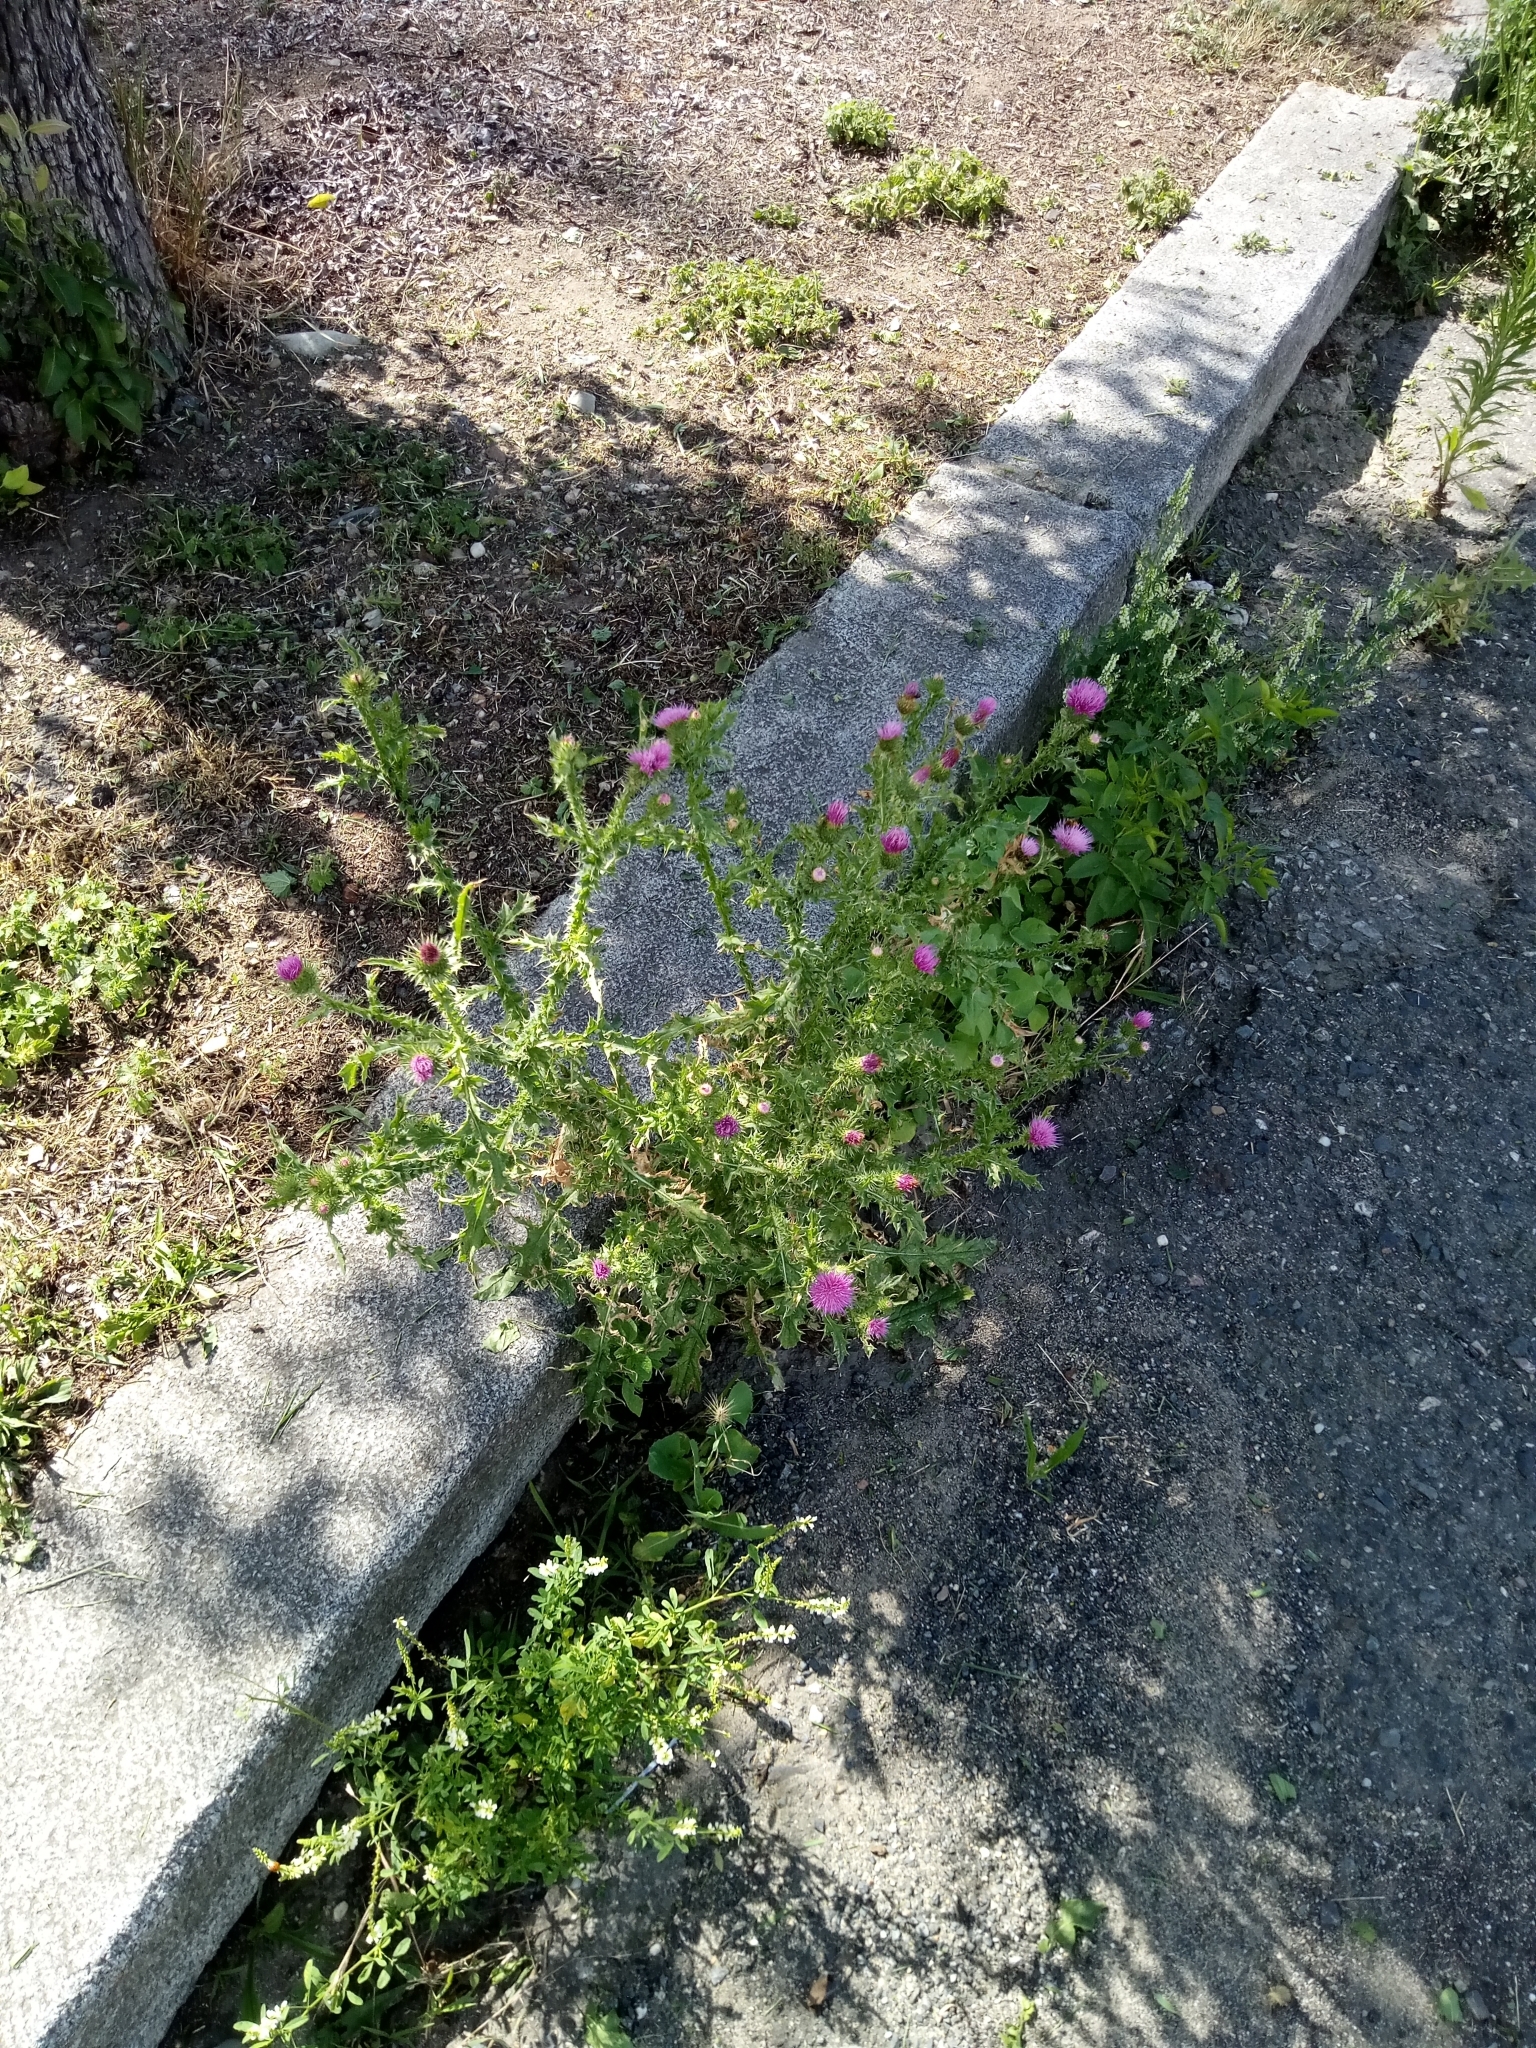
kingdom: Plantae
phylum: Tracheophyta
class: Magnoliopsida
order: Asterales
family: Asteraceae
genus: Carduus
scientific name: Carduus acanthoides
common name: Plumeless thistle
